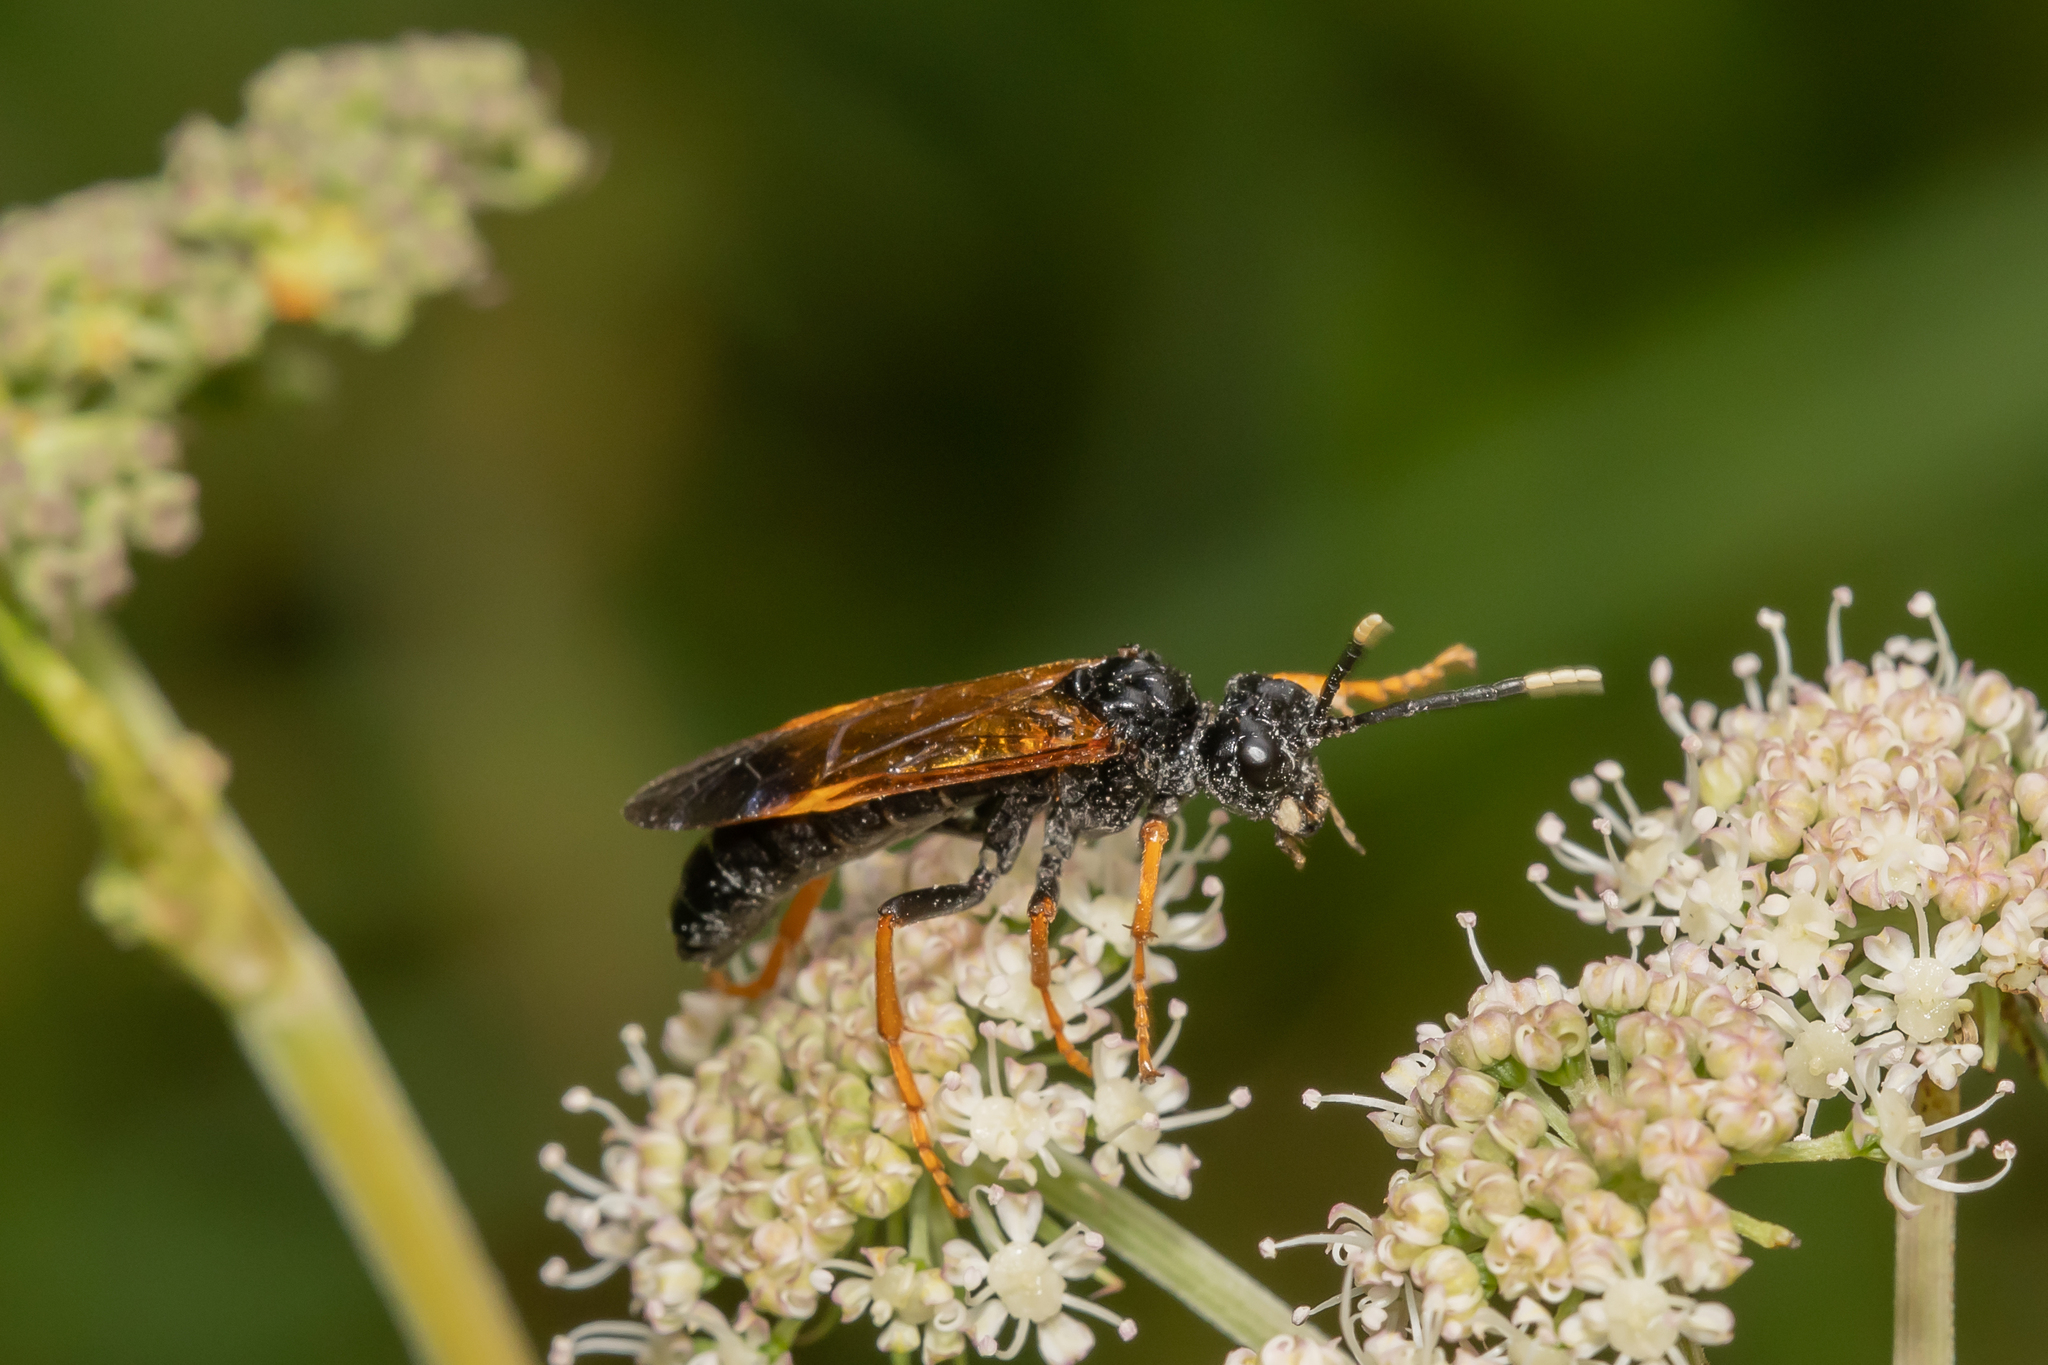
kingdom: Animalia
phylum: Arthropoda
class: Insecta
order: Hymenoptera
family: Tenthredinidae
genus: Tenthredo
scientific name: Tenthredo crassa
